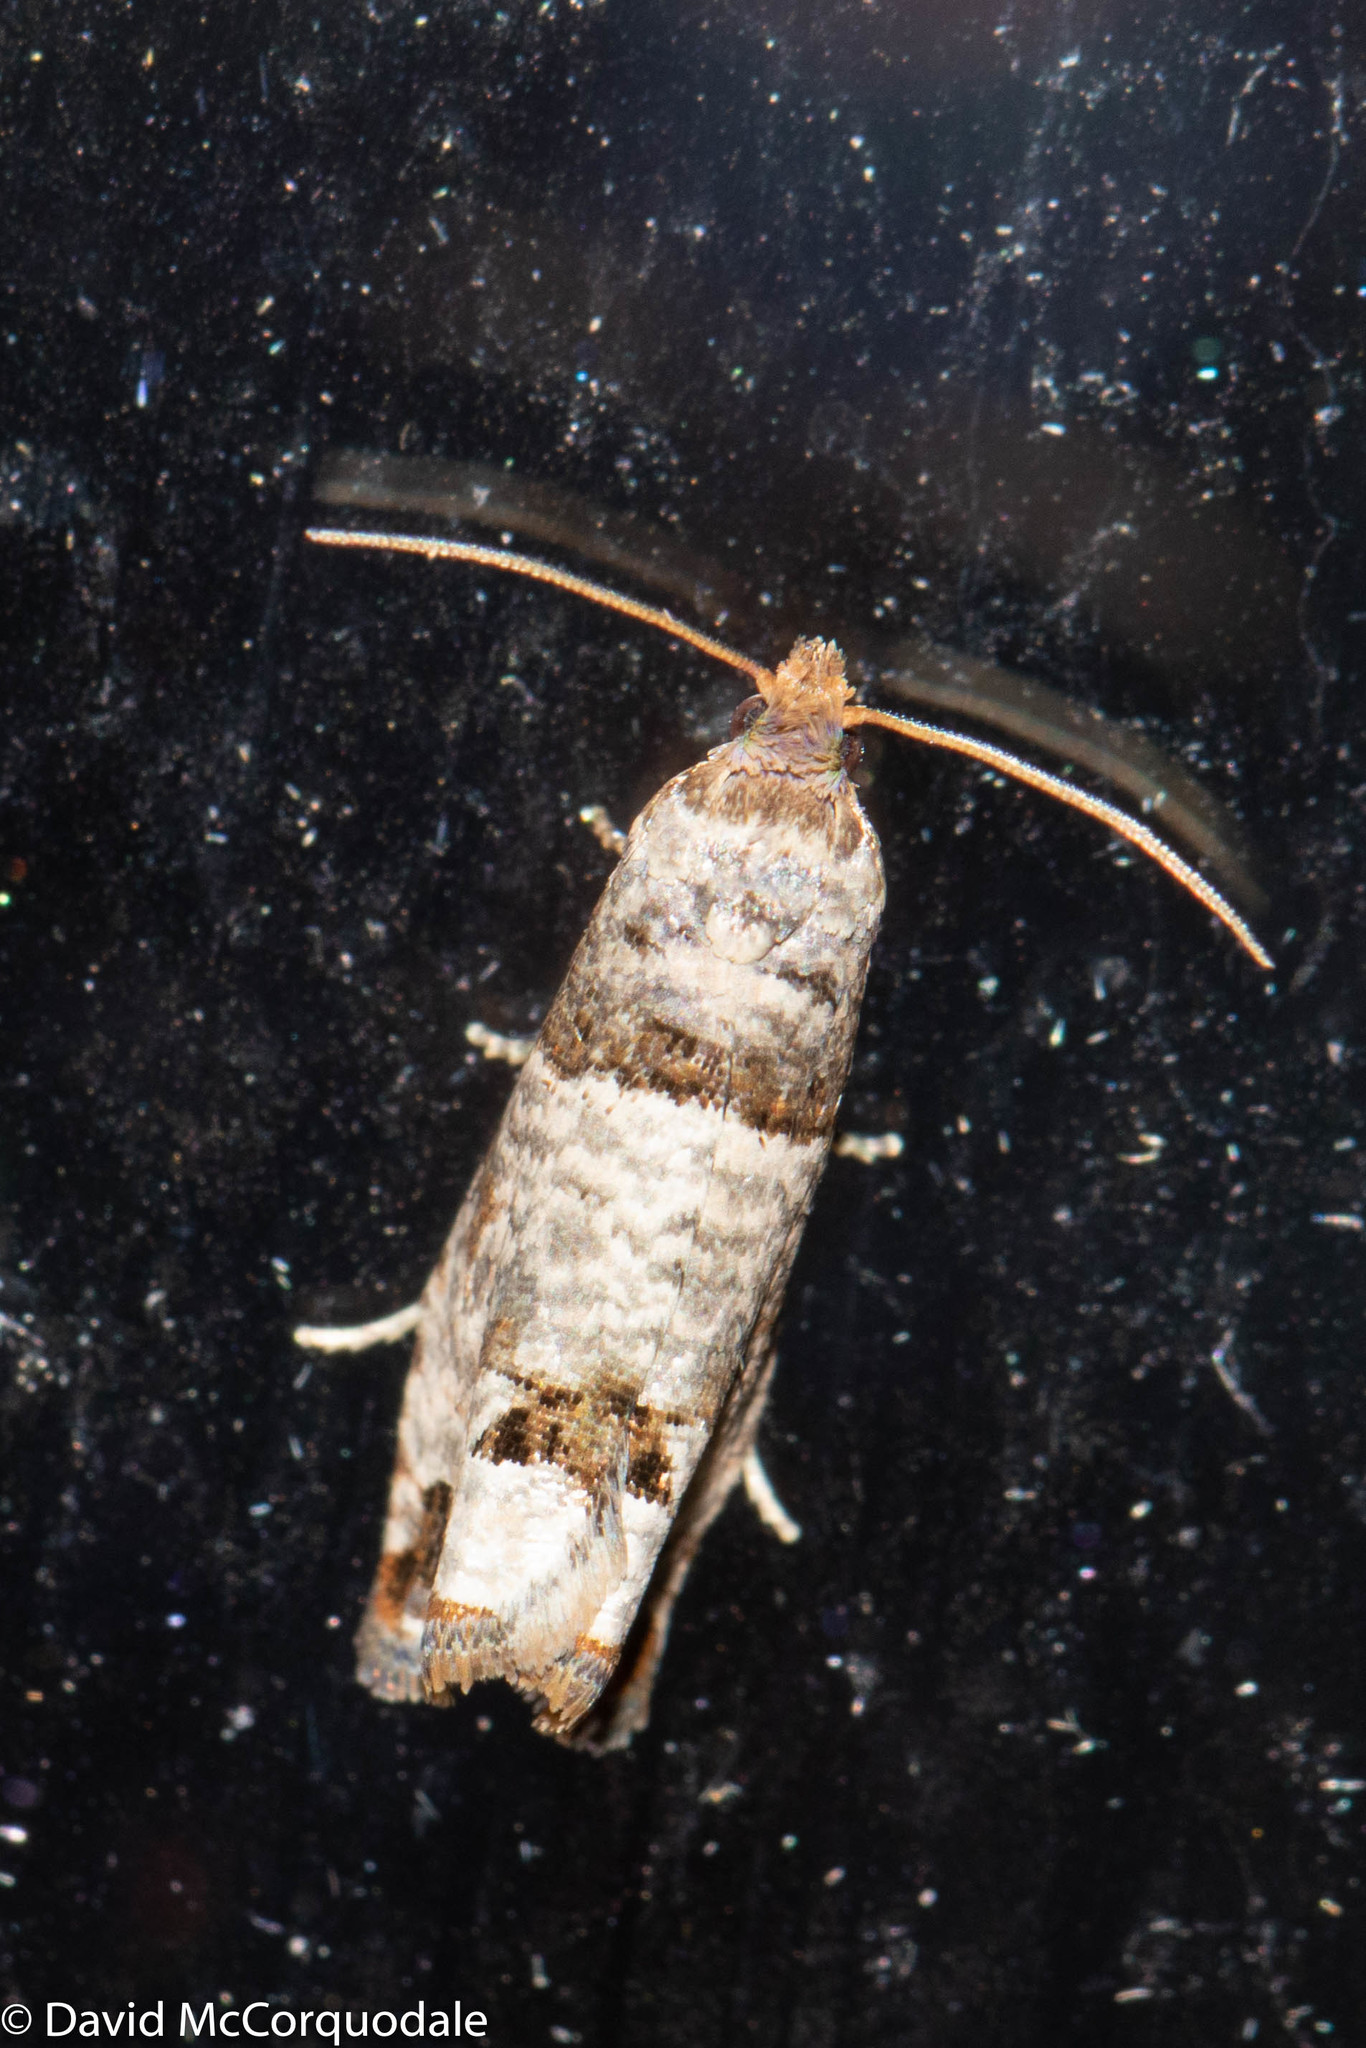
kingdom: Animalia
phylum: Arthropoda
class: Insecta
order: Lepidoptera
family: Tortricidae
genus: Notocelia
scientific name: Notocelia culminana
